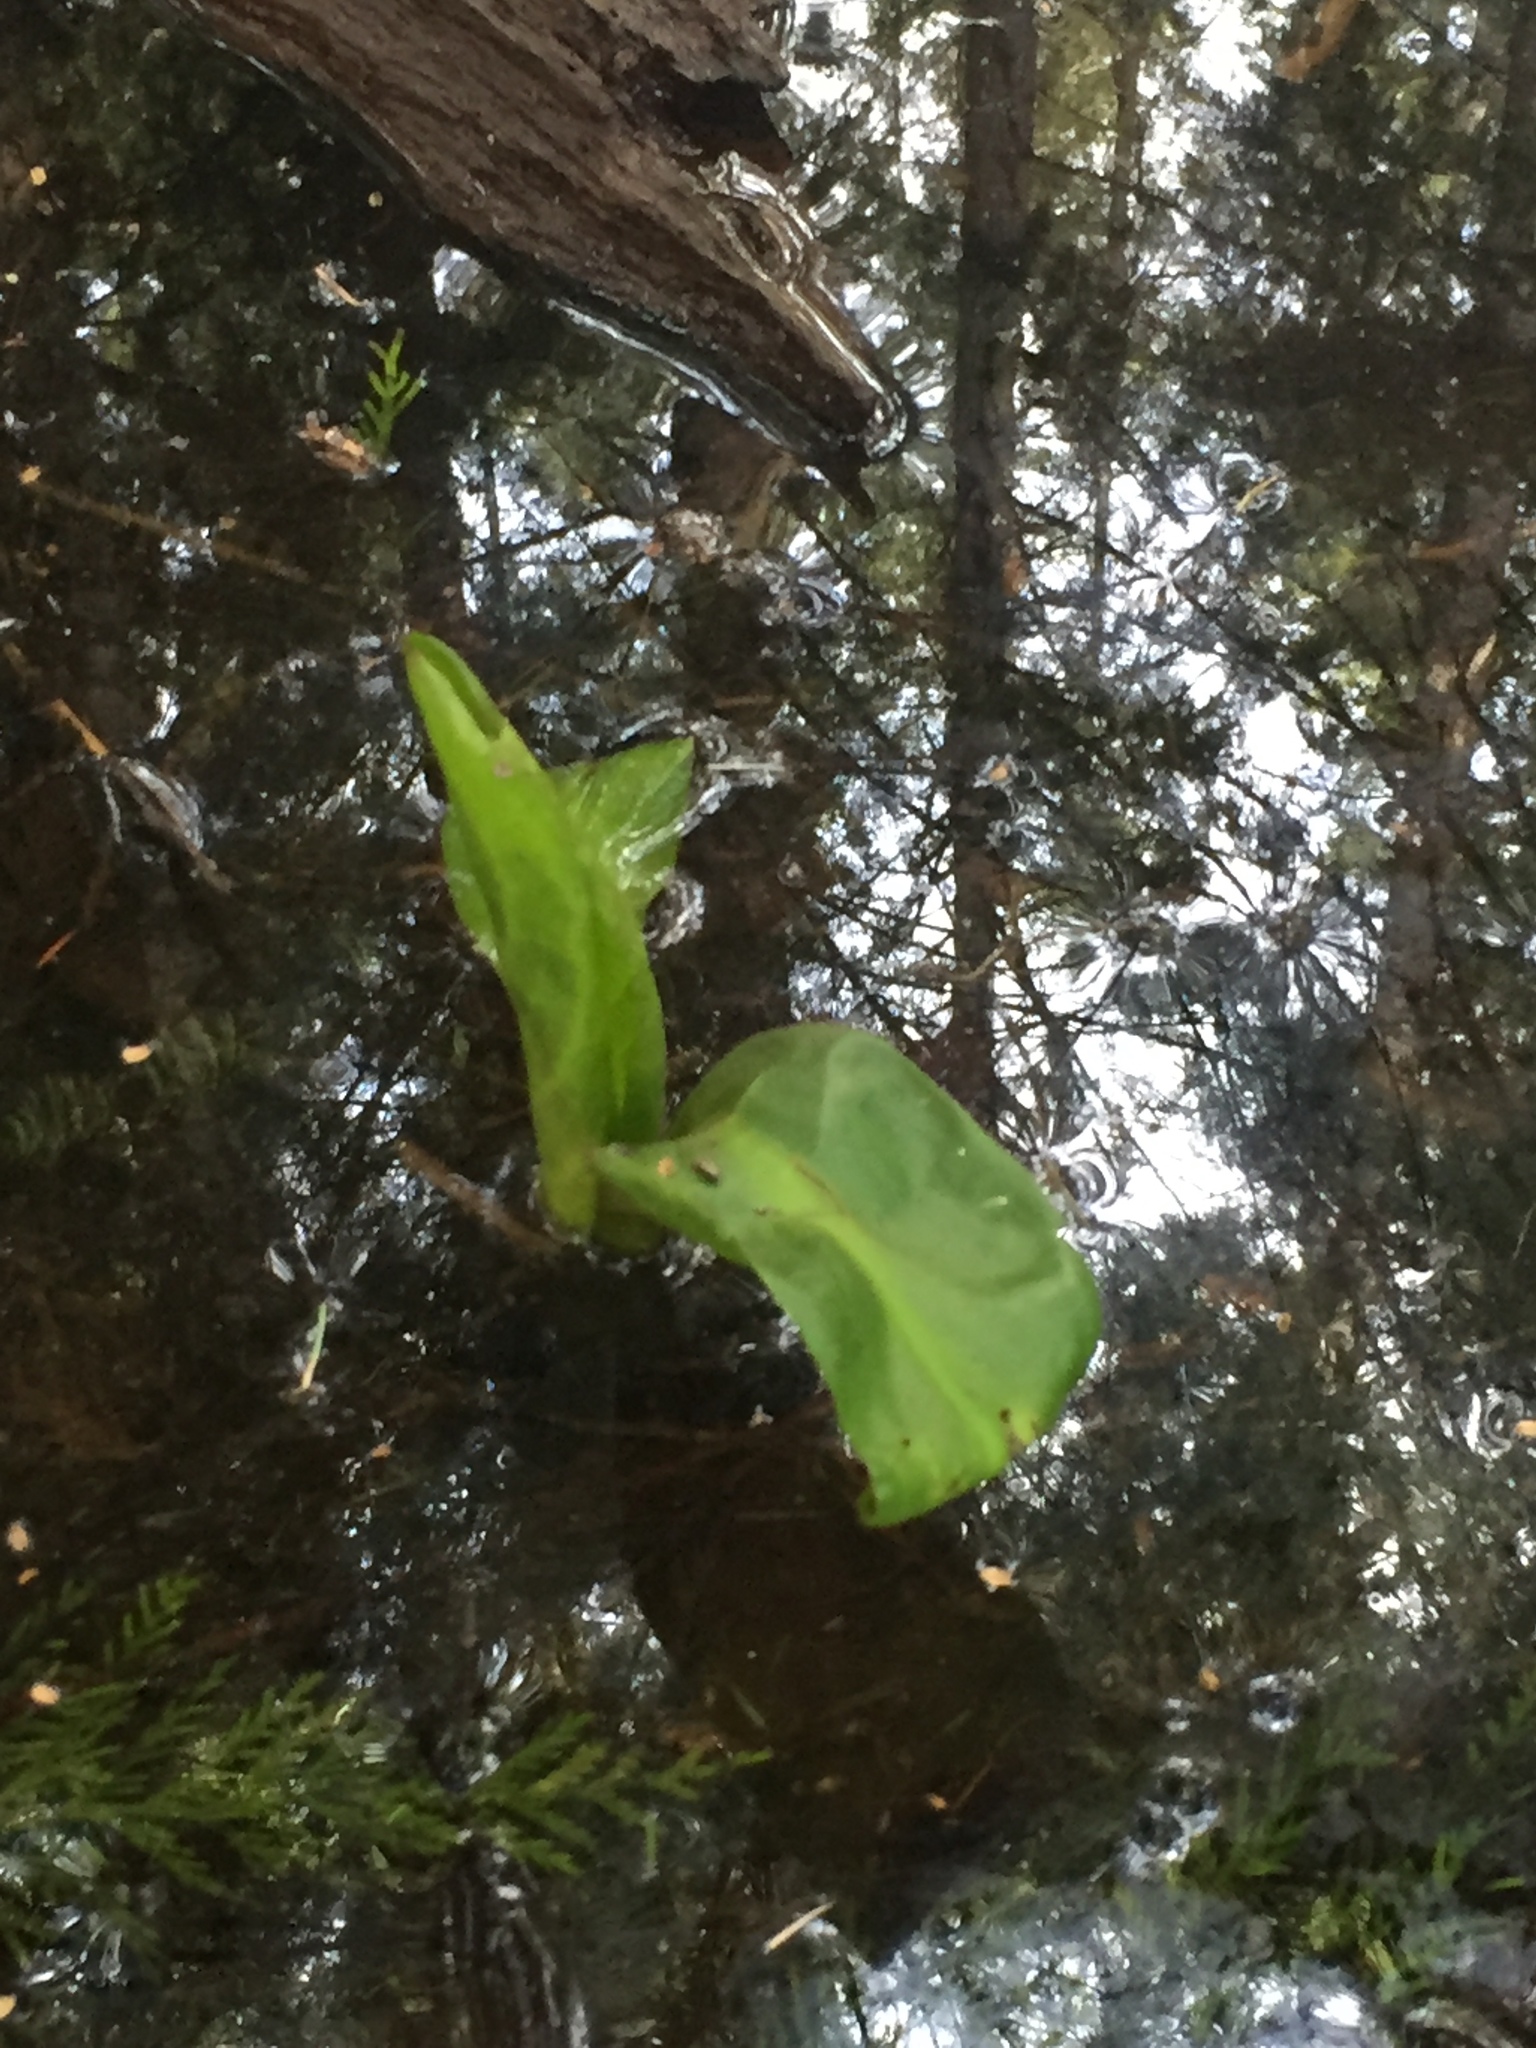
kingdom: Plantae
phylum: Tracheophyta
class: Liliopsida
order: Alismatales
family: Araceae
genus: Lysichiton
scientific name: Lysichiton americanus
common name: American skunk cabbage
